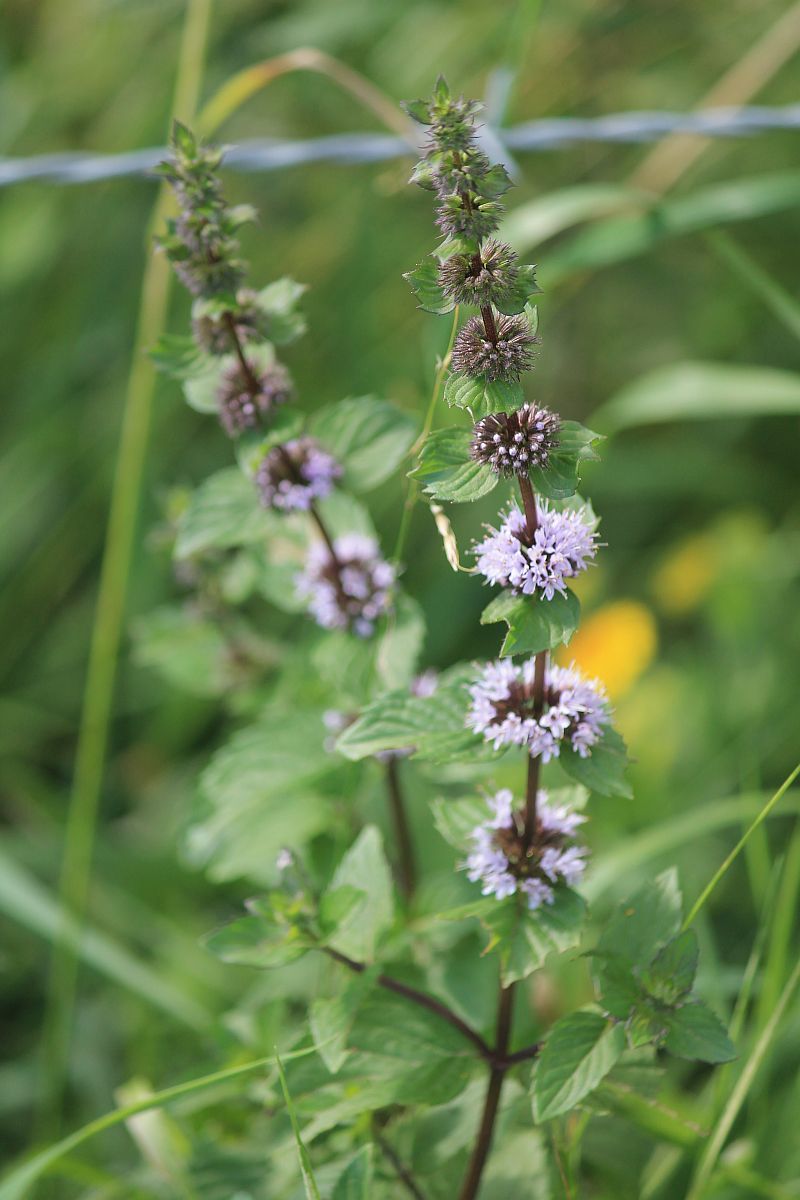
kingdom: Plantae
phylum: Tracheophyta
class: Magnoliopsida
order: Lamiales
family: Lamiaceae
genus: Mentha
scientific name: Mentha verticillata
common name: Mint
